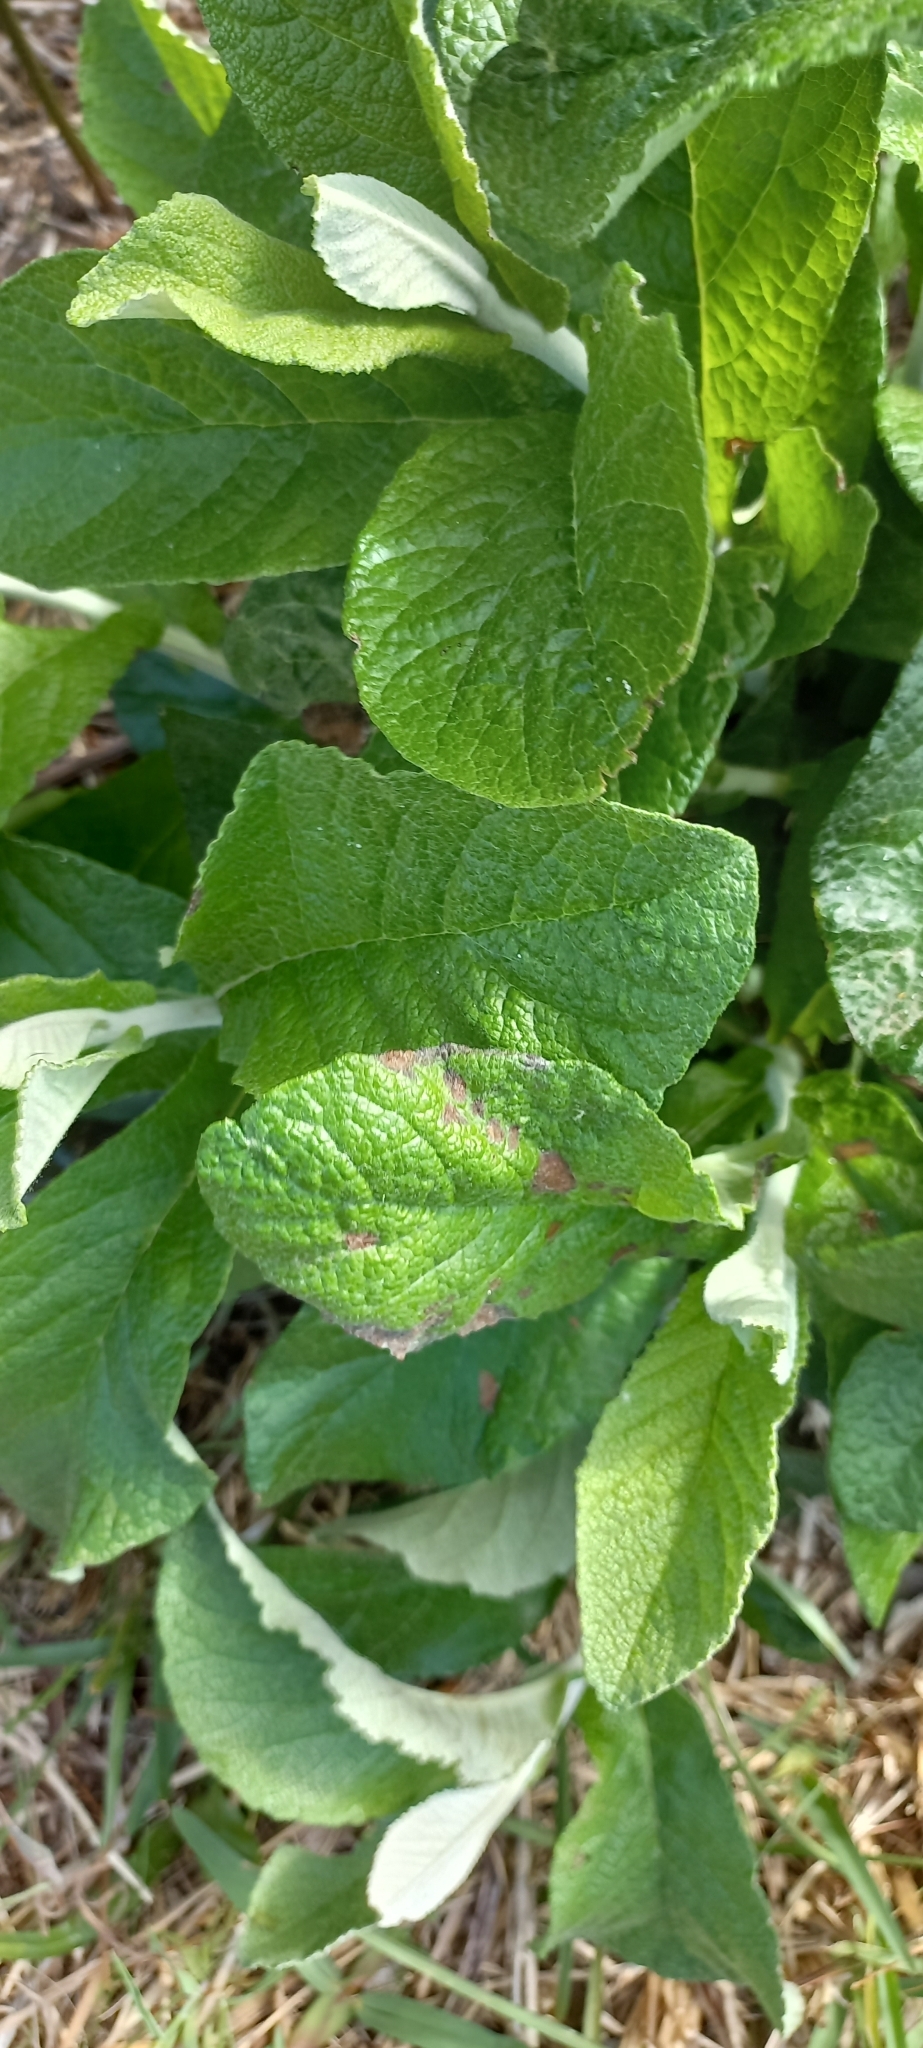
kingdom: Plantae
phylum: Tracheophyta
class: Magnoliopsida
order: Asterales
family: Asteraceae
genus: Tarchonanthus
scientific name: Tarchonanthus littoralis
